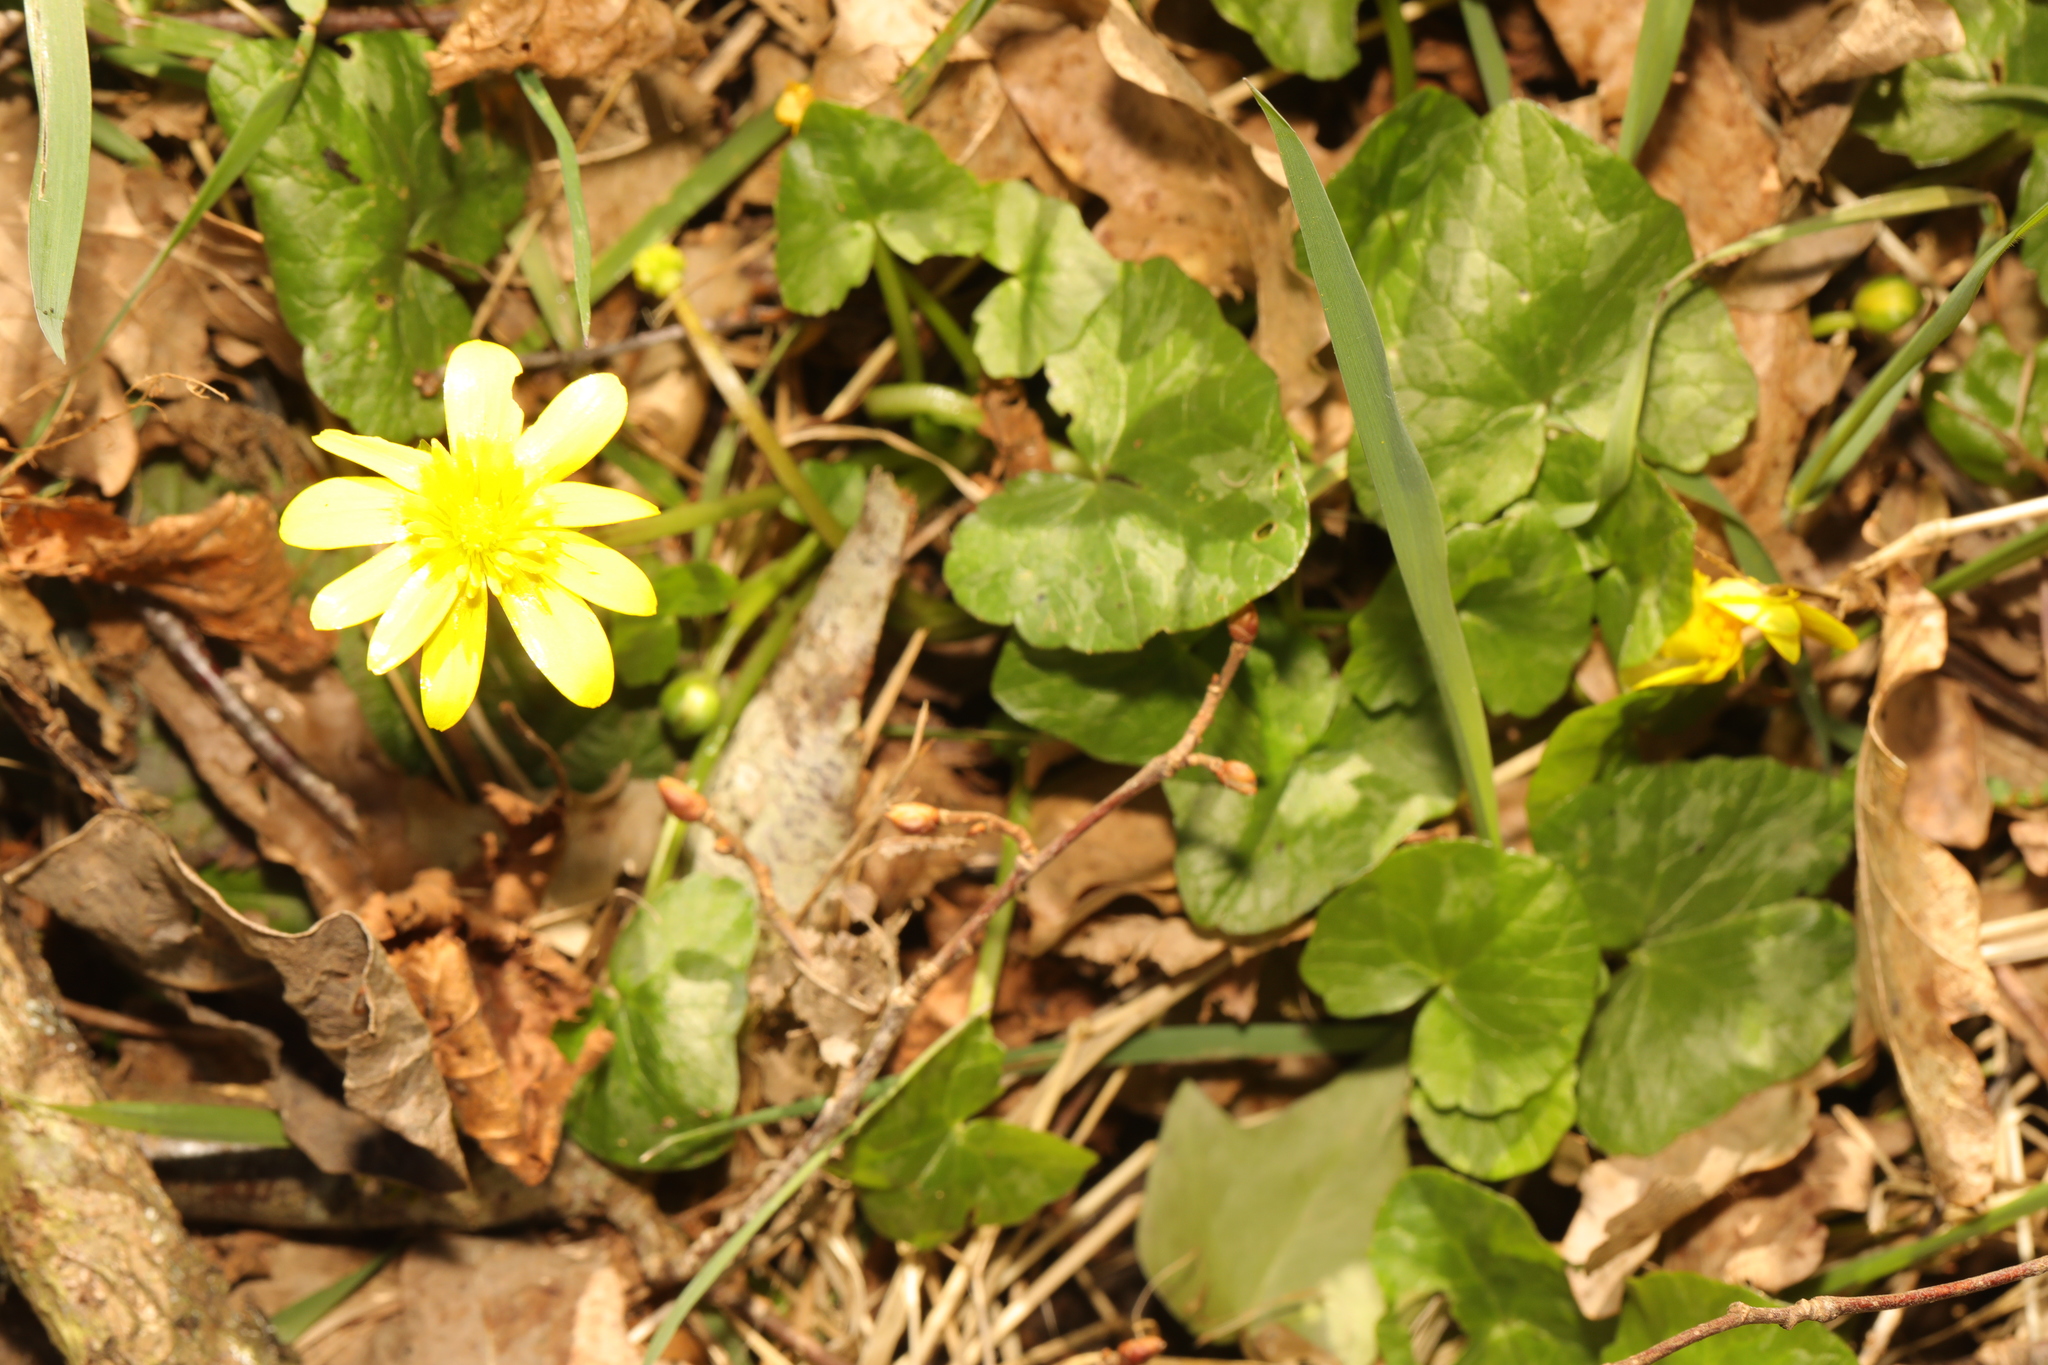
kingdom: Plantae
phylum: Tracheophyta
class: Magnoliopsida
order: Ranunculales
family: Ranunculaceae
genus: Ficaria
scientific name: Ficaria verna
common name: Lesser celandine
